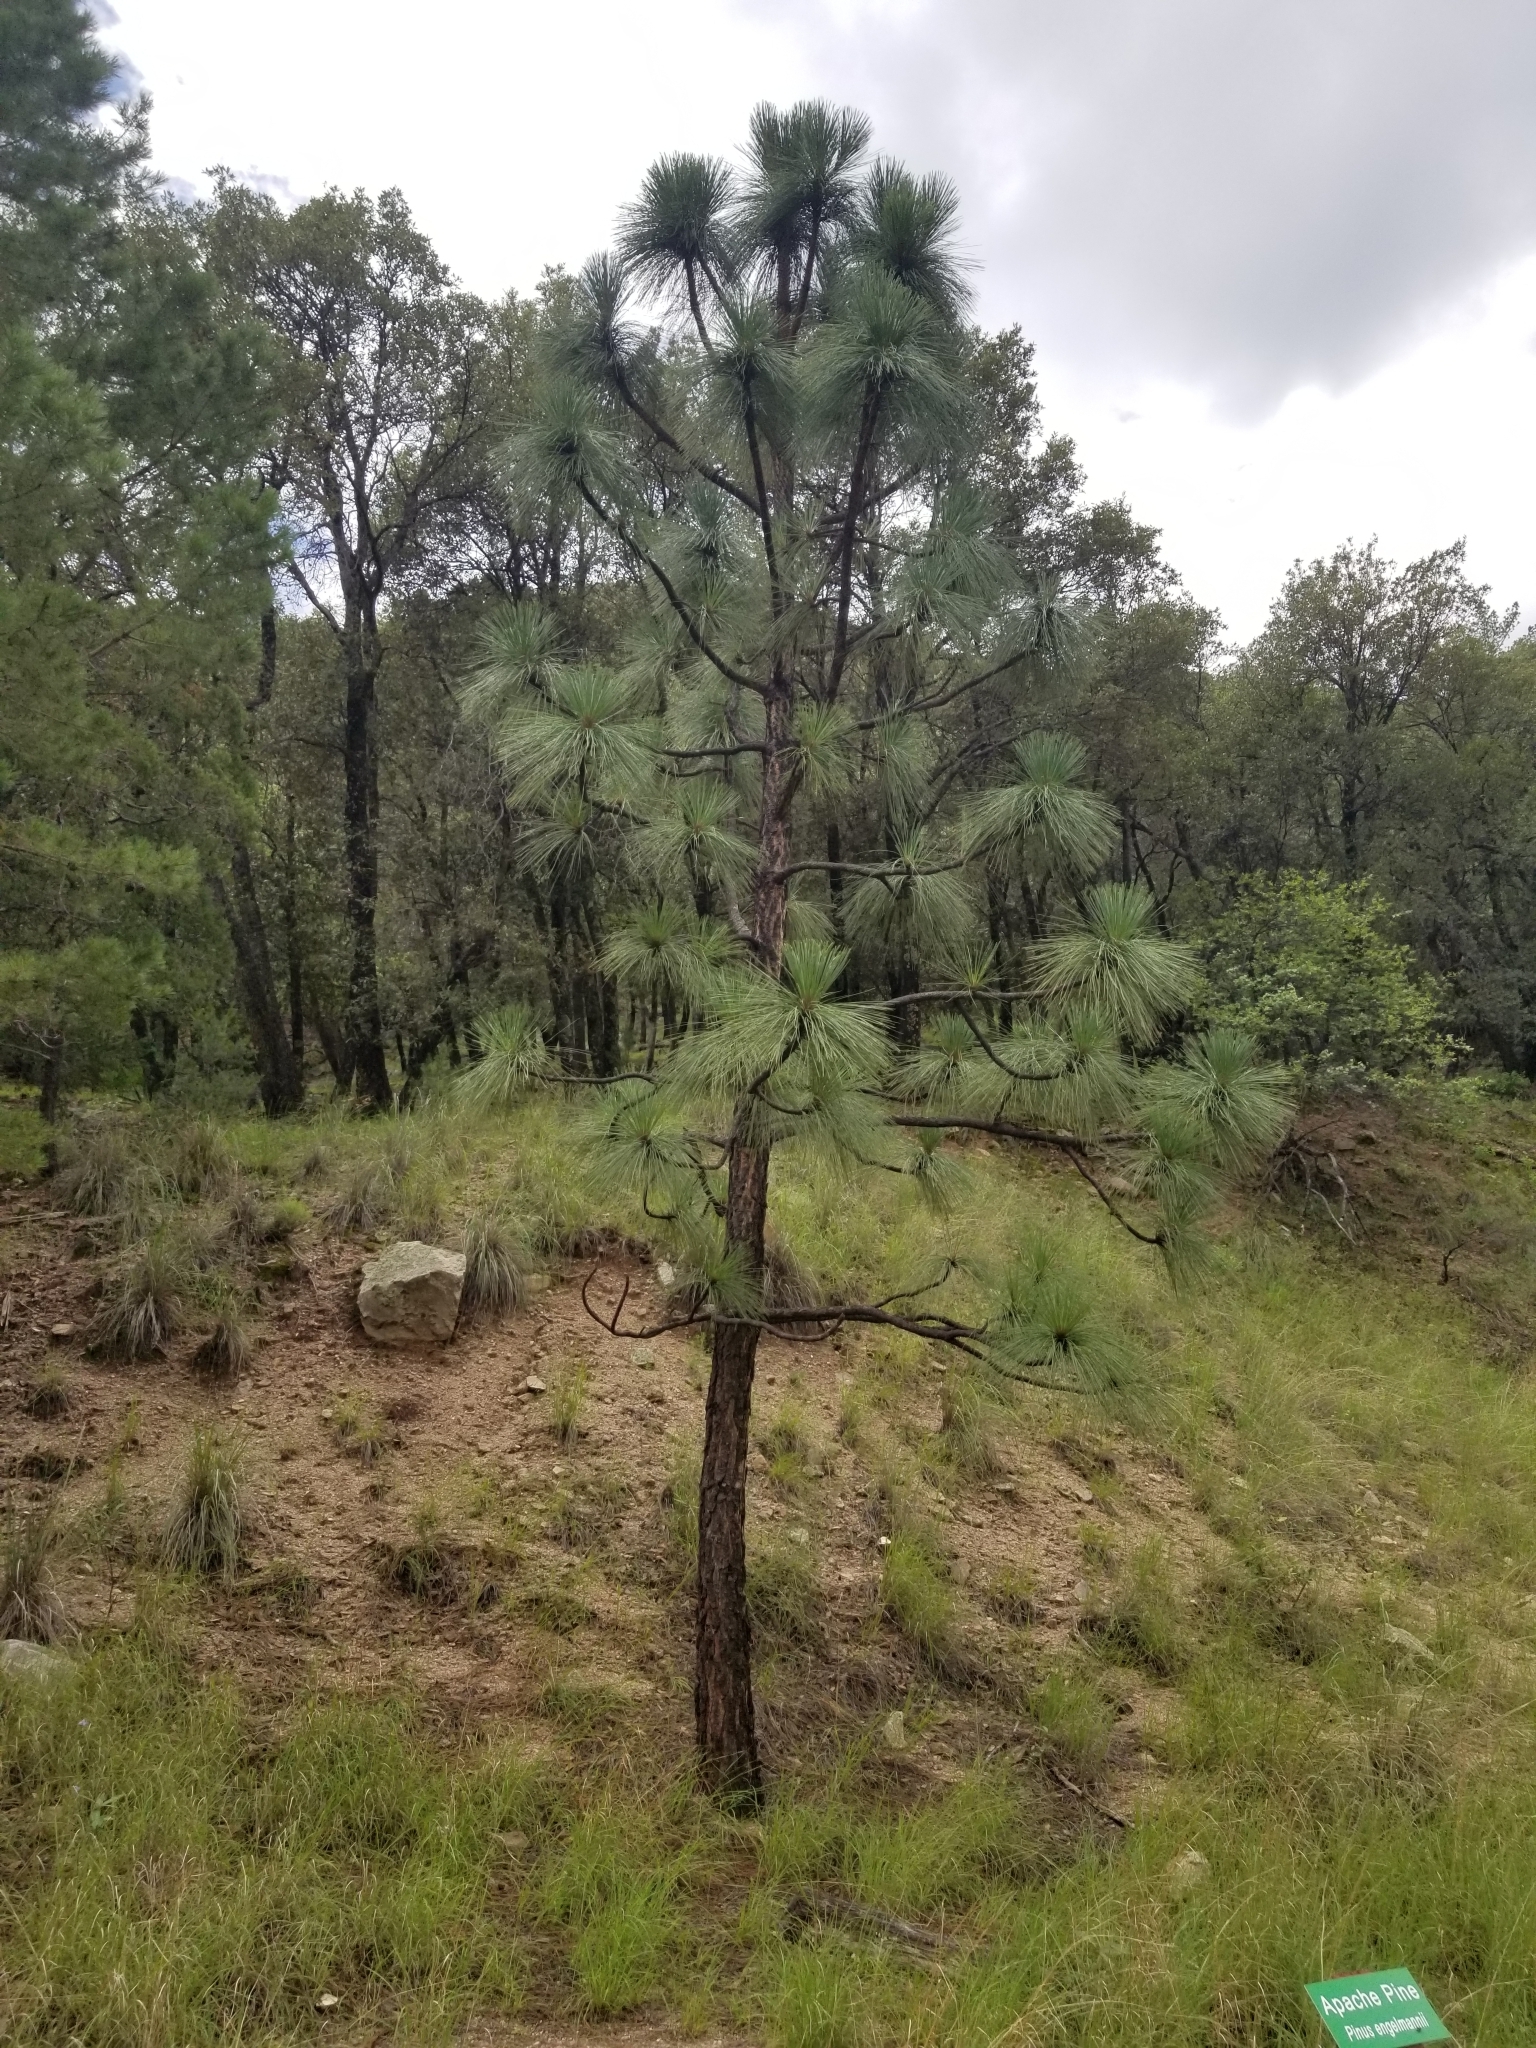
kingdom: Plantae
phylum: Tracheophyta
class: Pinopsida
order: Pinales
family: Pinaceae
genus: Pinus
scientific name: Pinus engelmannii
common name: Apache pine
